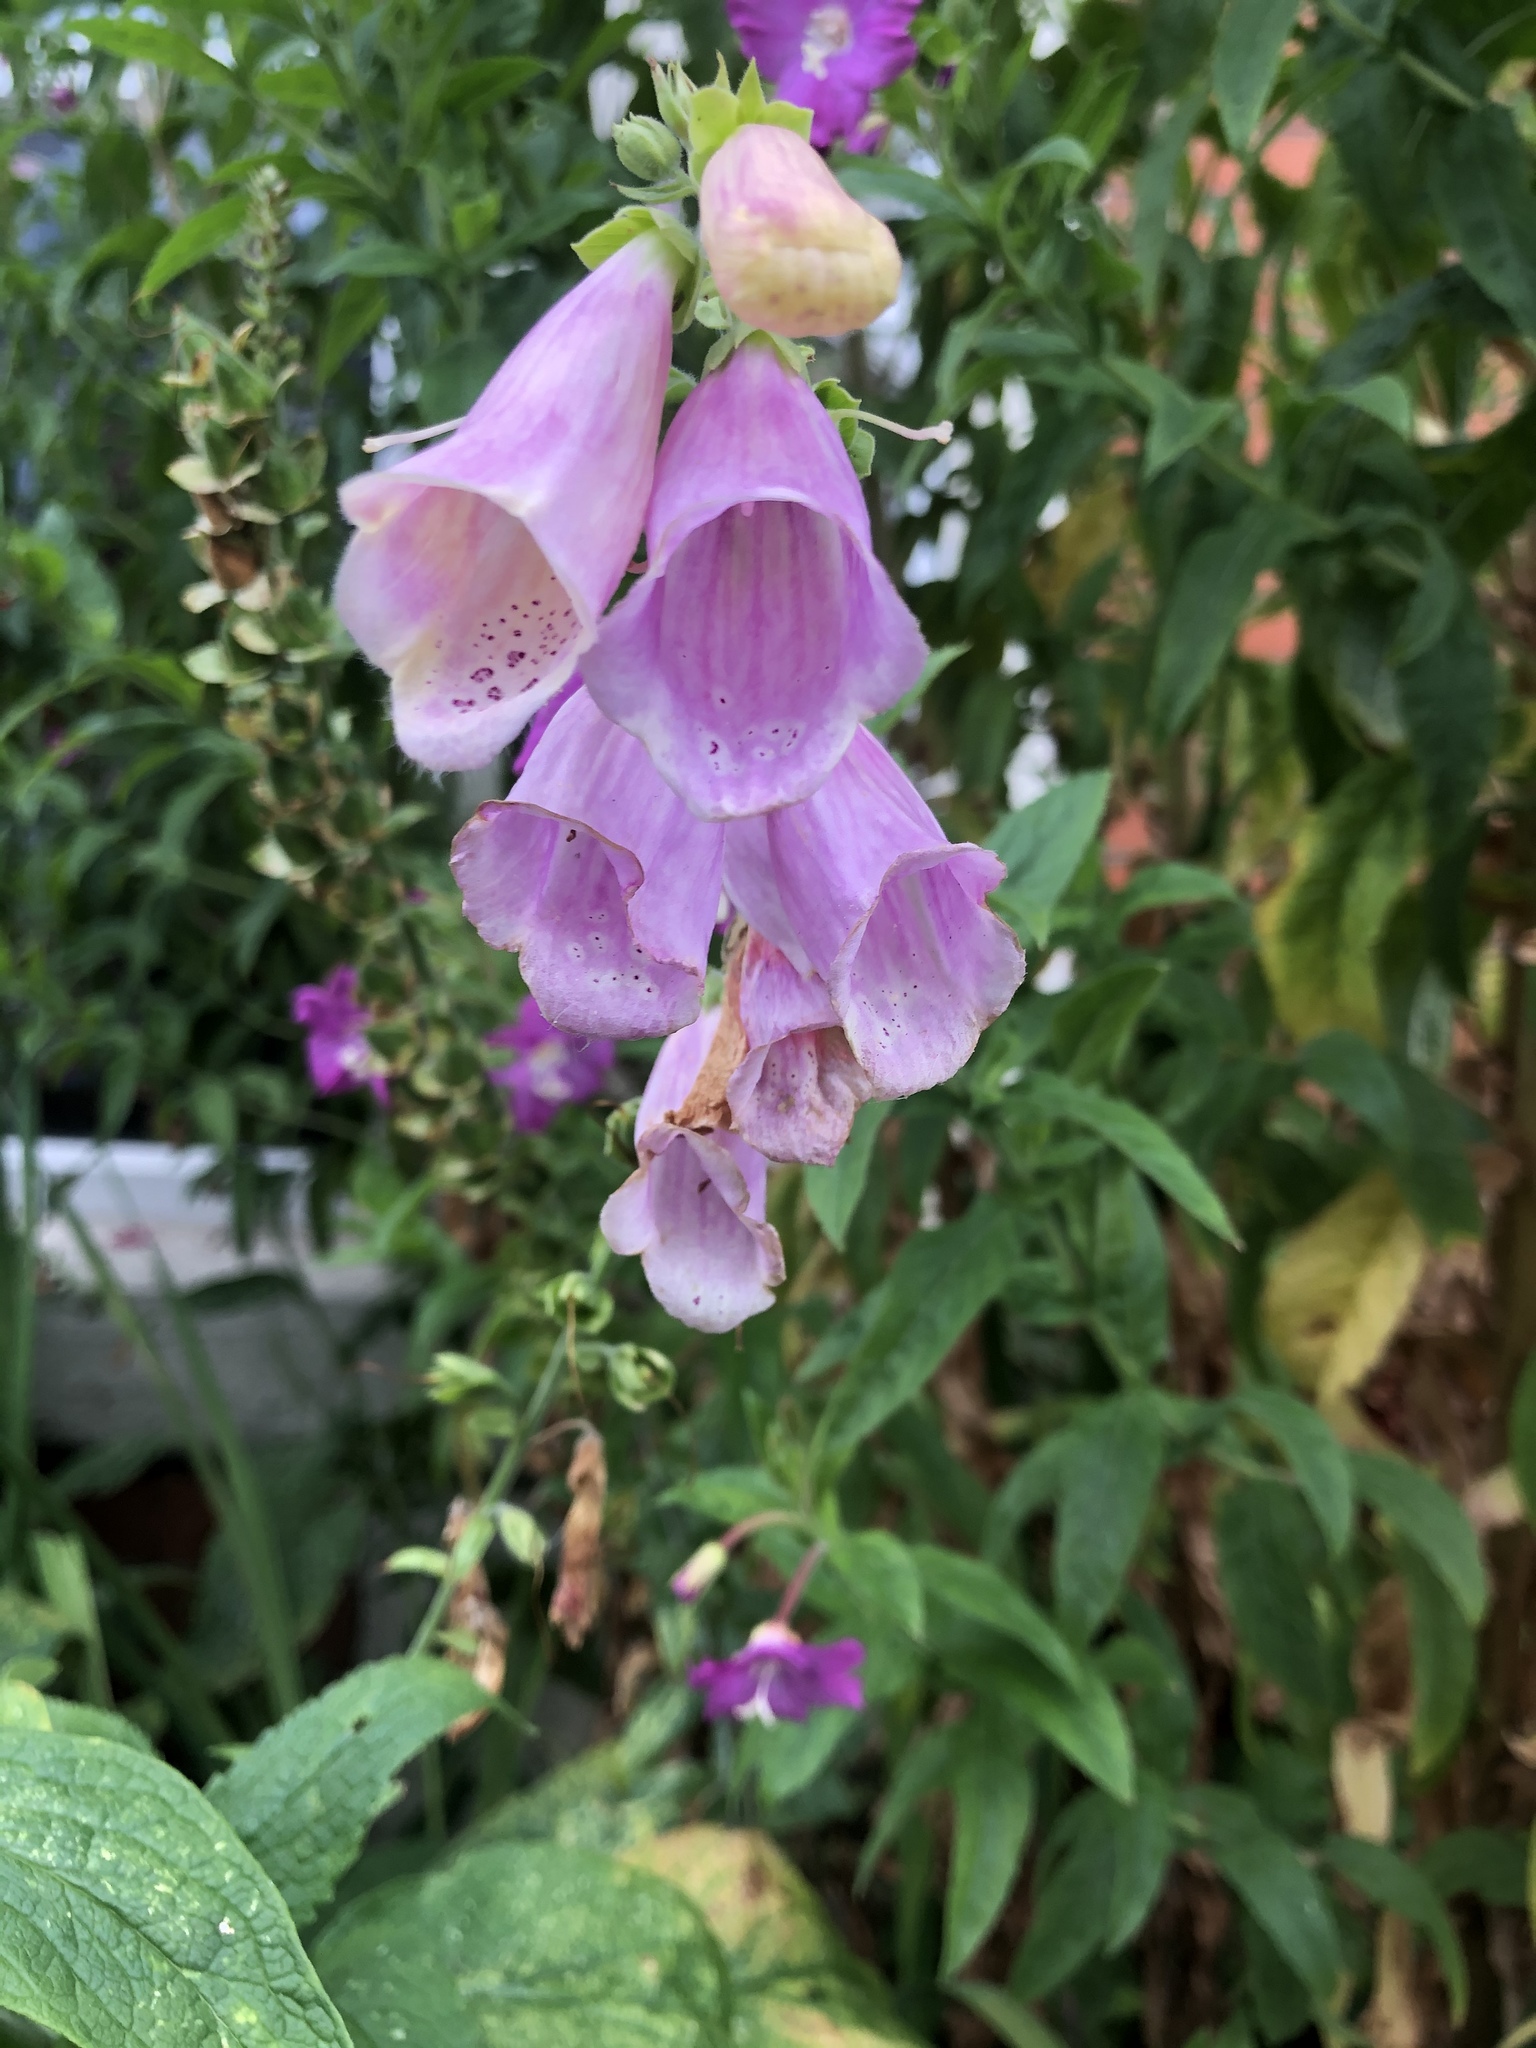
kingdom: Plantae
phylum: Tracheophyta
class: Magnoliopsida
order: Lamiales
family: Plantaginaceae
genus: Digitalis
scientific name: Digitalis purpurea
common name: Foxglove
